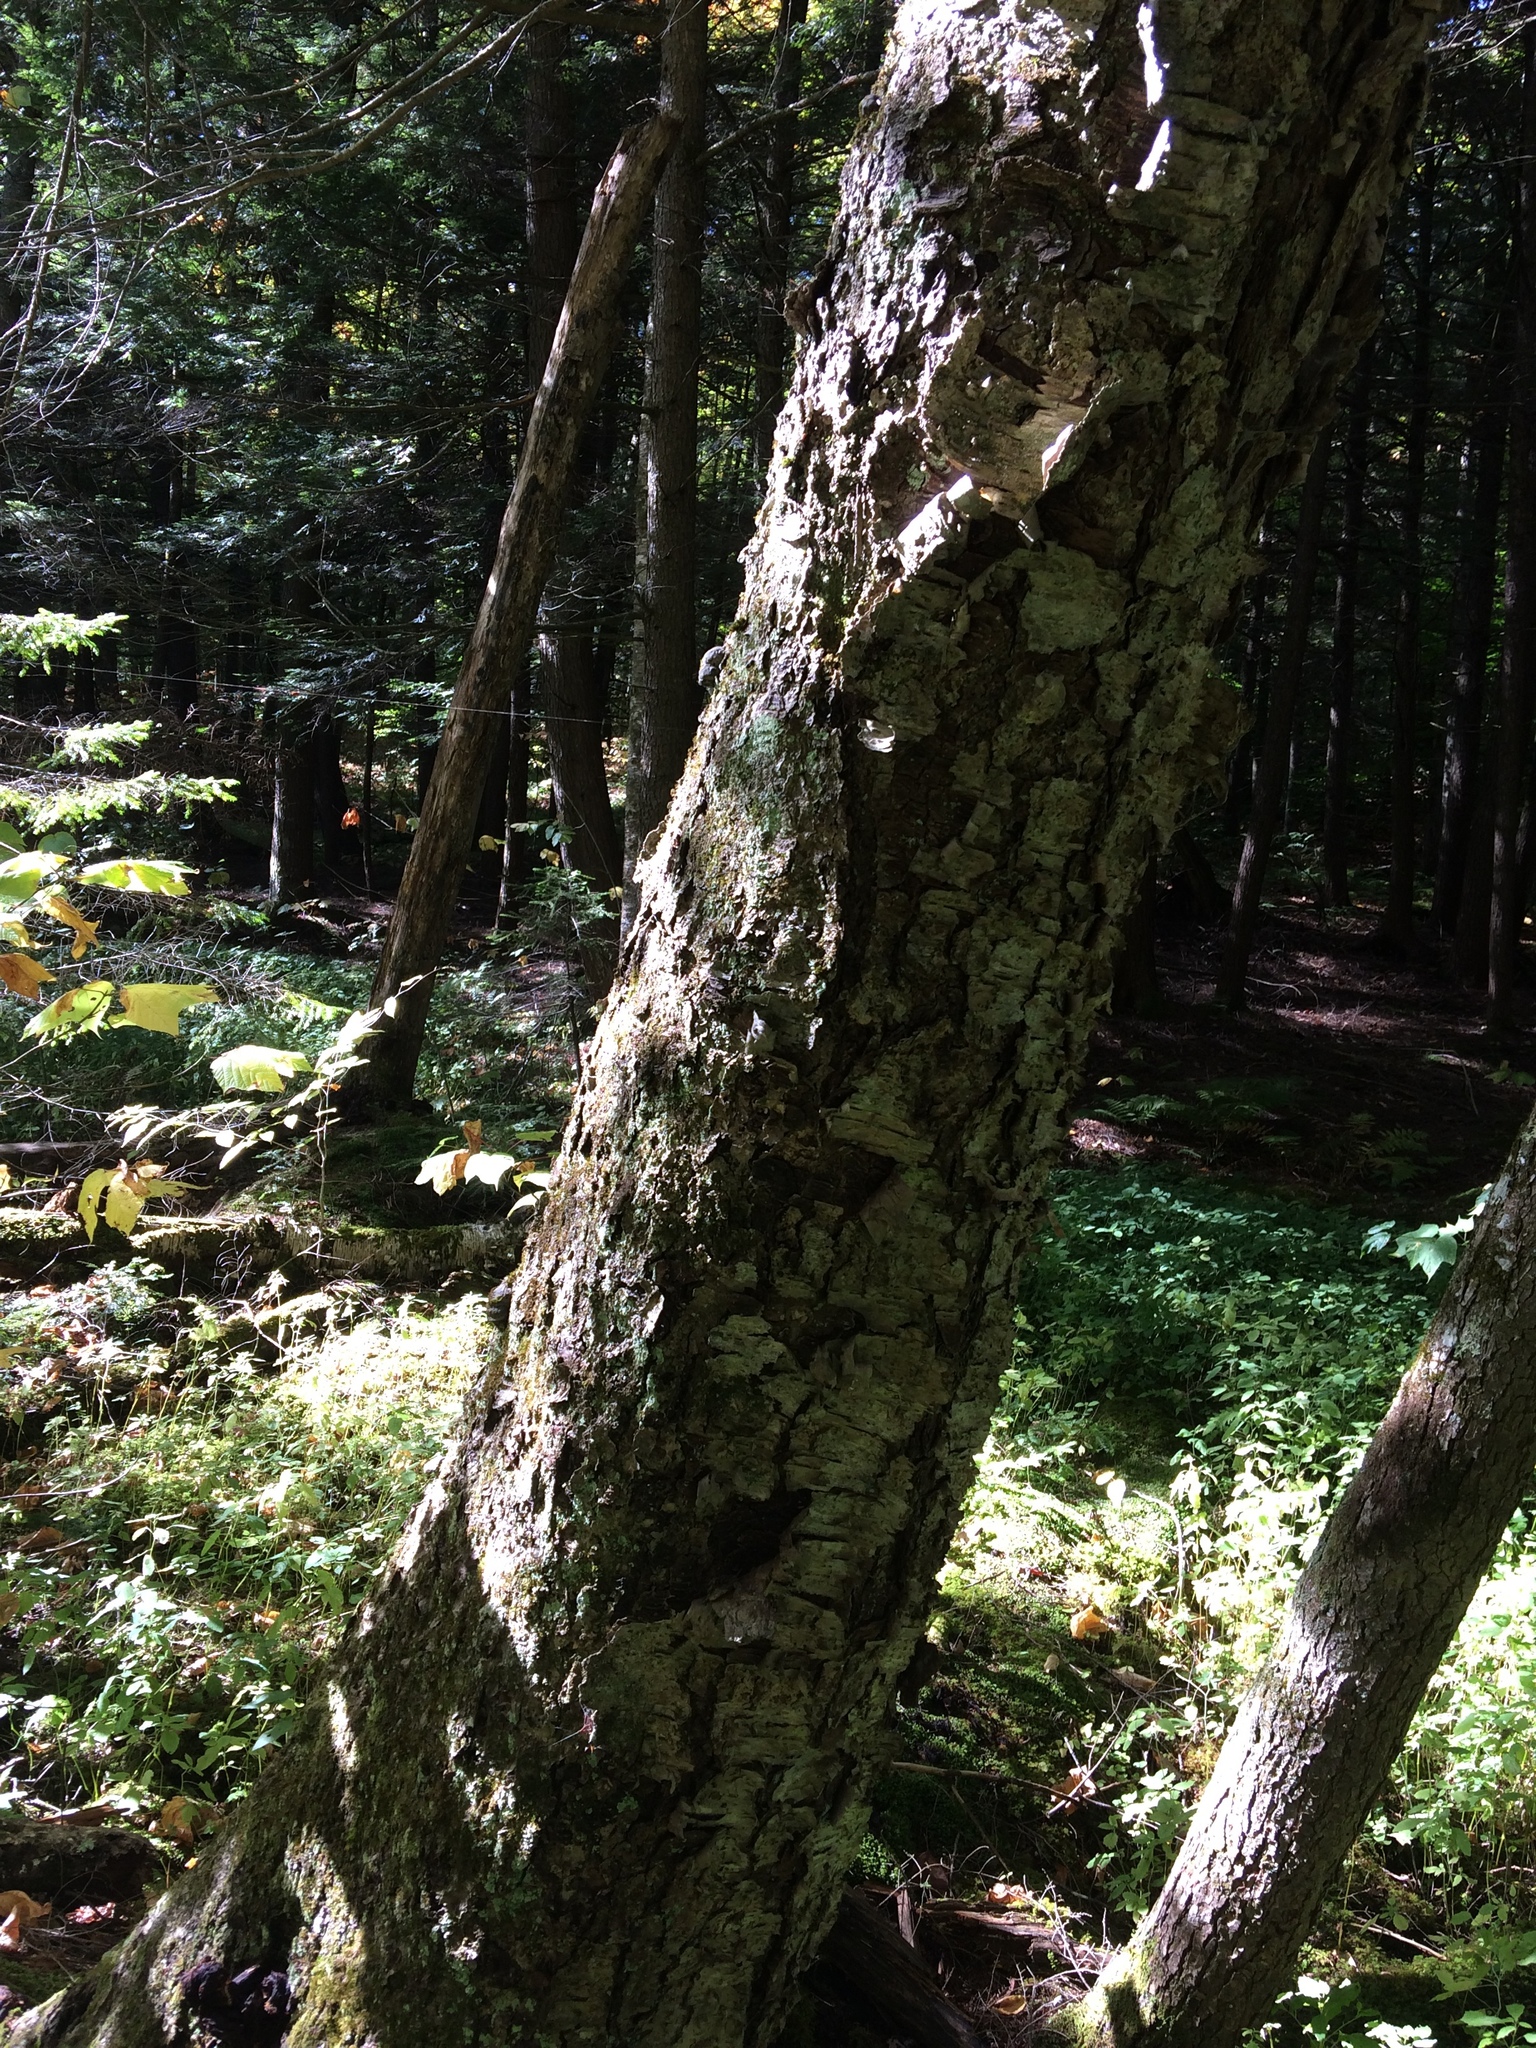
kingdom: Plantae
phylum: Tracheophyta
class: Magnoliopsida
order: Fagales
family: Betulaceae
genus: Betula
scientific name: Betula alleghaniensis
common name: Yellow birch
